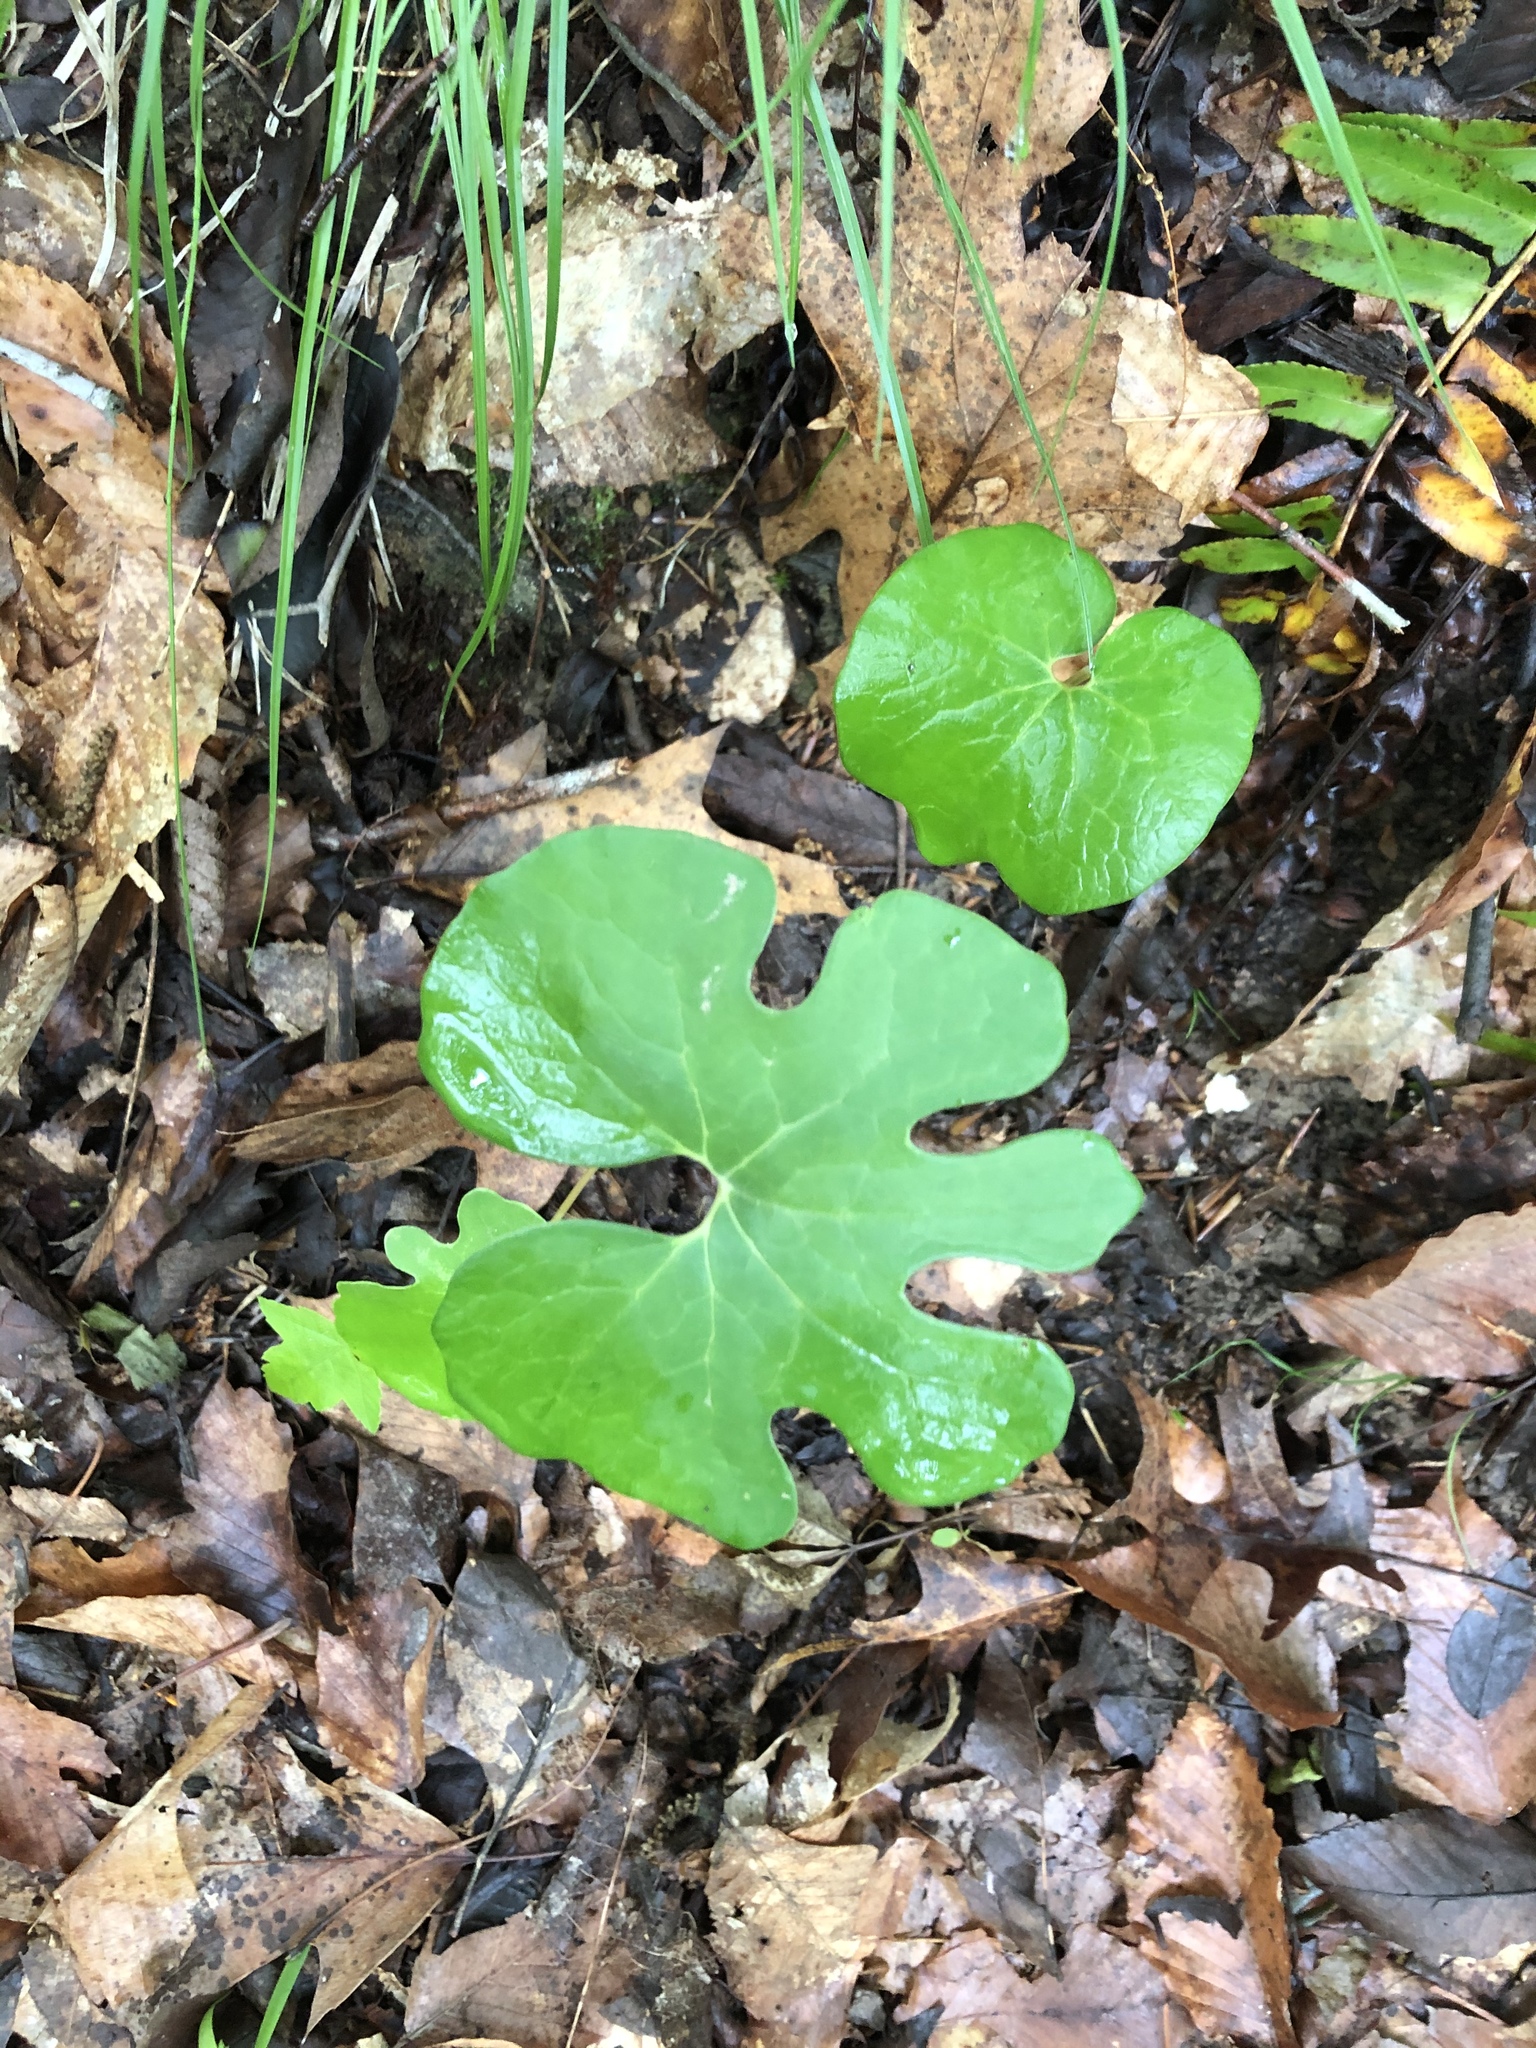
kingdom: Plantae
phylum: Tracheophyta
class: Magnoliopsida
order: Ranunculales
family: Papaveraceae
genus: Sanguinaria
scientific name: Sanguinaria canadensis
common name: Bloodroot
